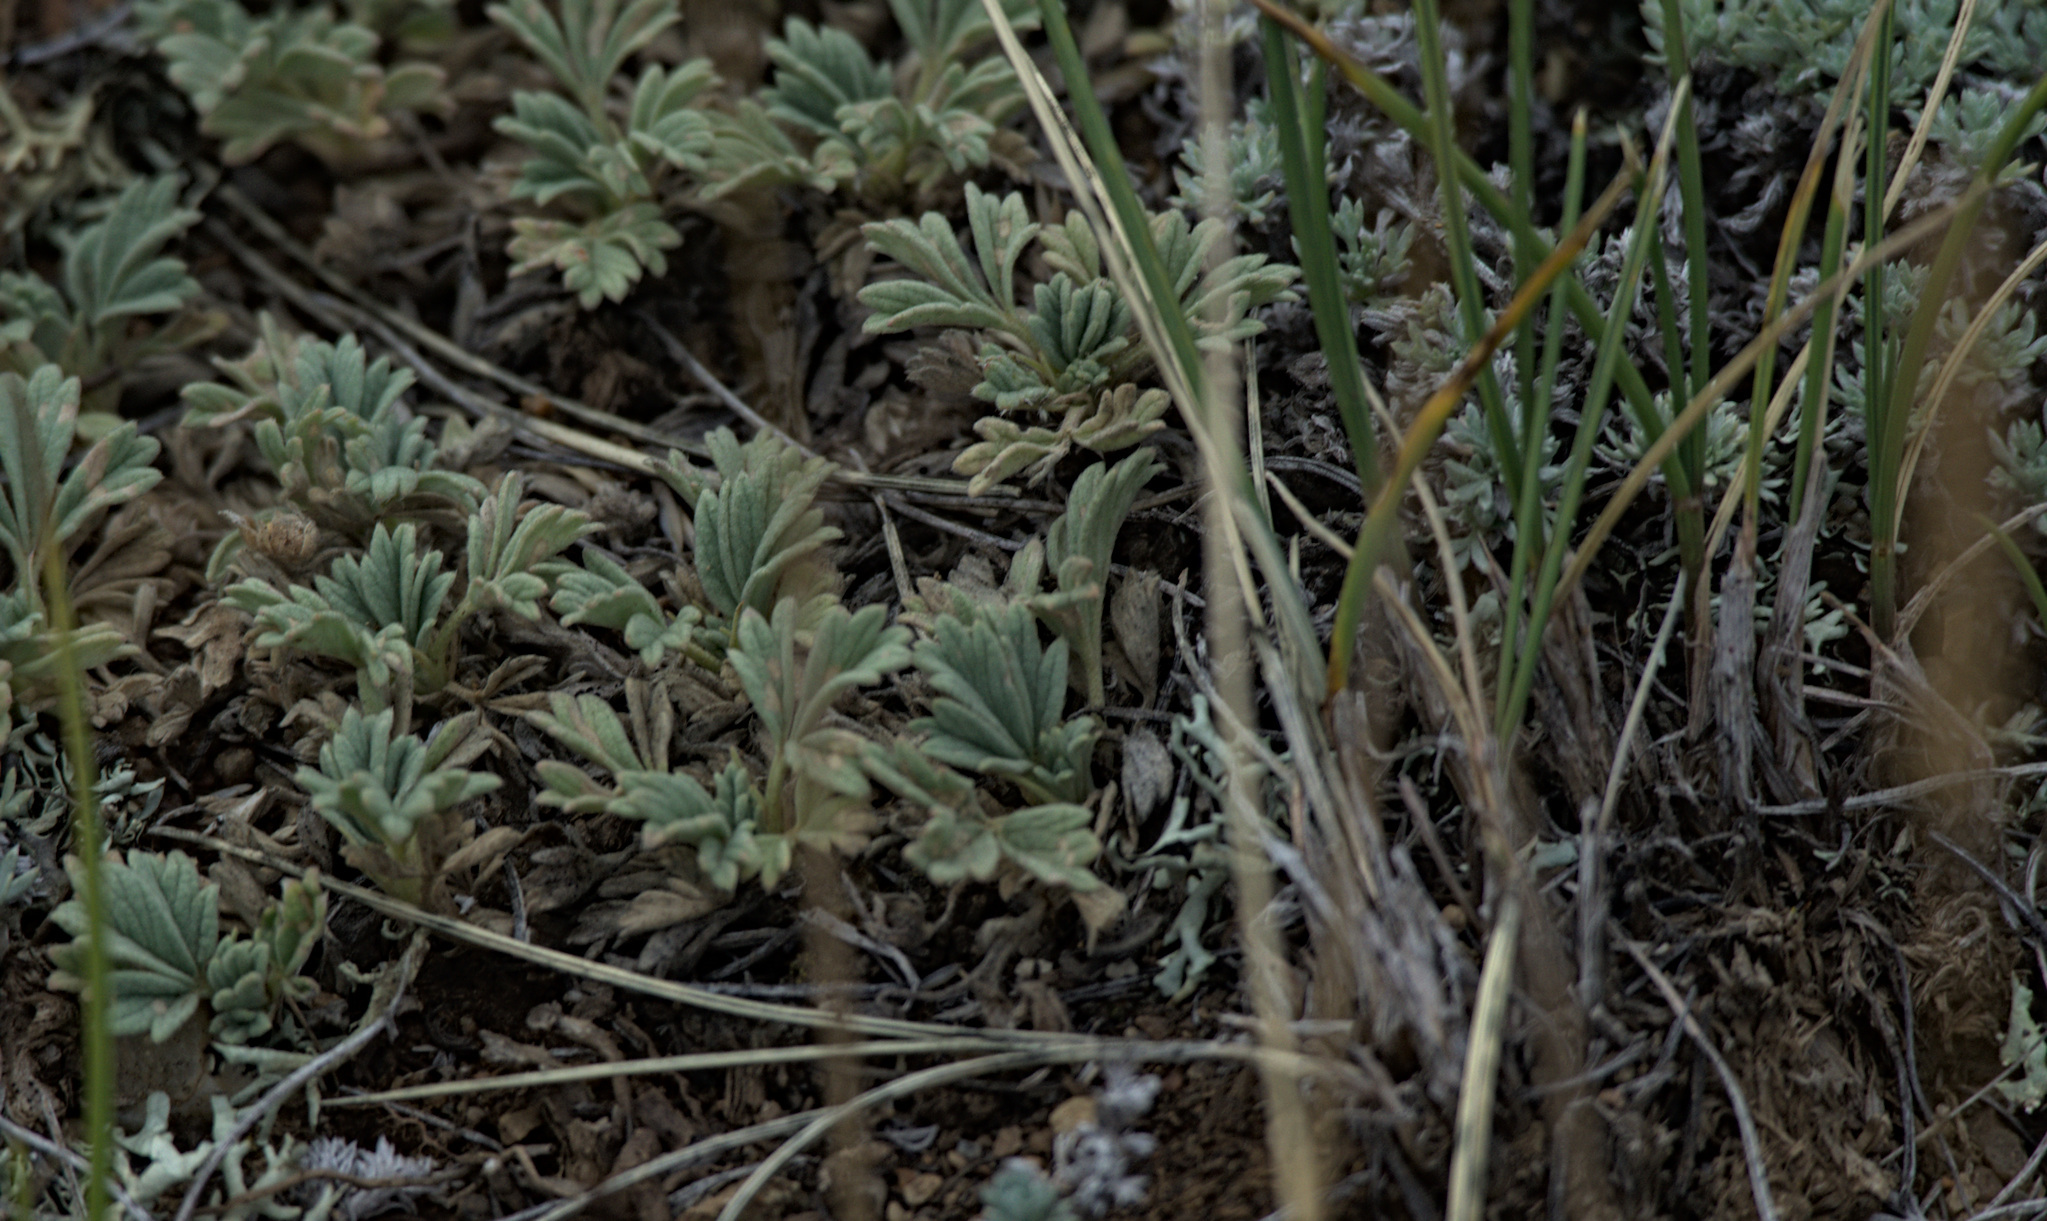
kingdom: Plantae
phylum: Tracheophyta
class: Magnoliopsida
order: Rosales
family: Rosaceae
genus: Potentilla
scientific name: Potentilla acaulis
